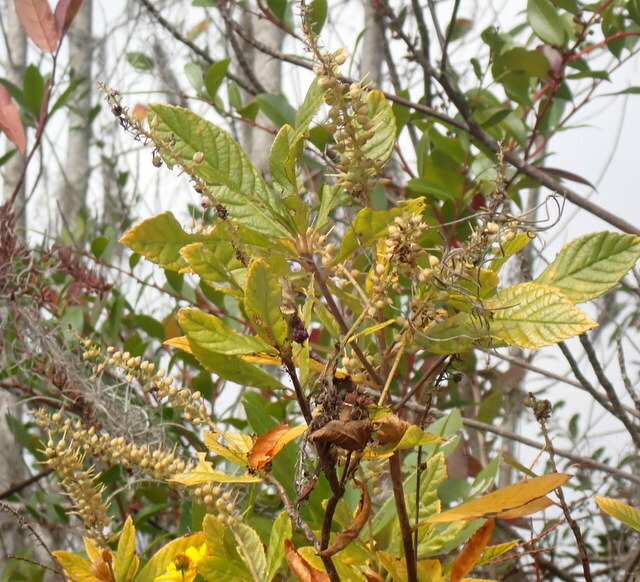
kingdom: Plantae
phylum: Tracheophyta
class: Magnoliopsida
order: Ericales
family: Clethraceae
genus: Clethra
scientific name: Clethra alnifolia
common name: Sweet pepperbush
